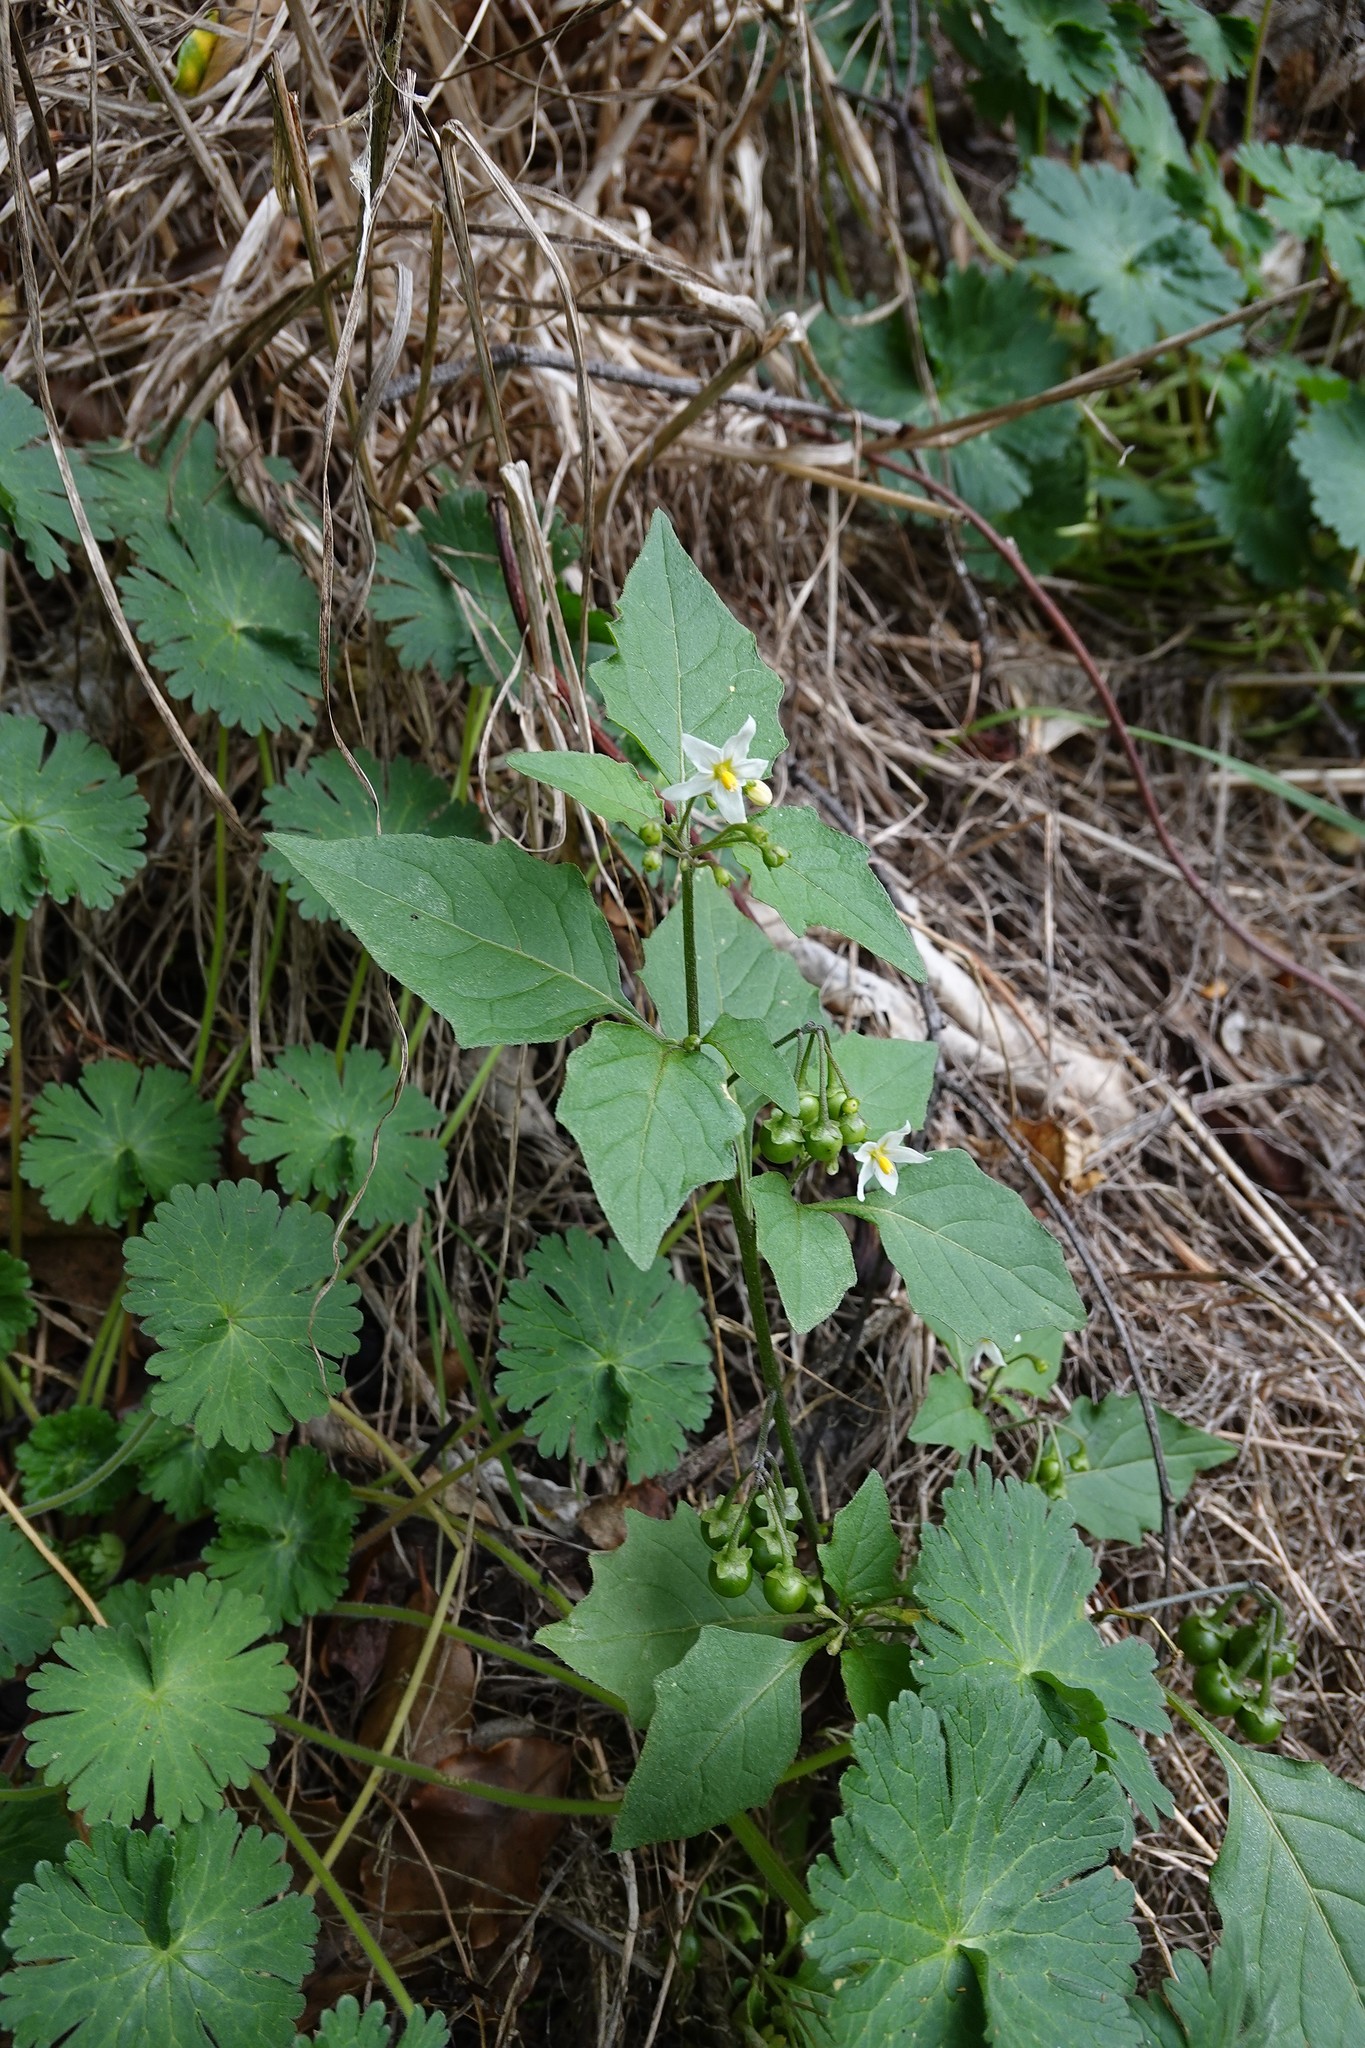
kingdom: Plantae
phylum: Tracheophyta
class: Magnoliopsida
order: Solanales
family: Solanaceae
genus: Solanum
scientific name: Solanum nigrum
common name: Black nightshade
